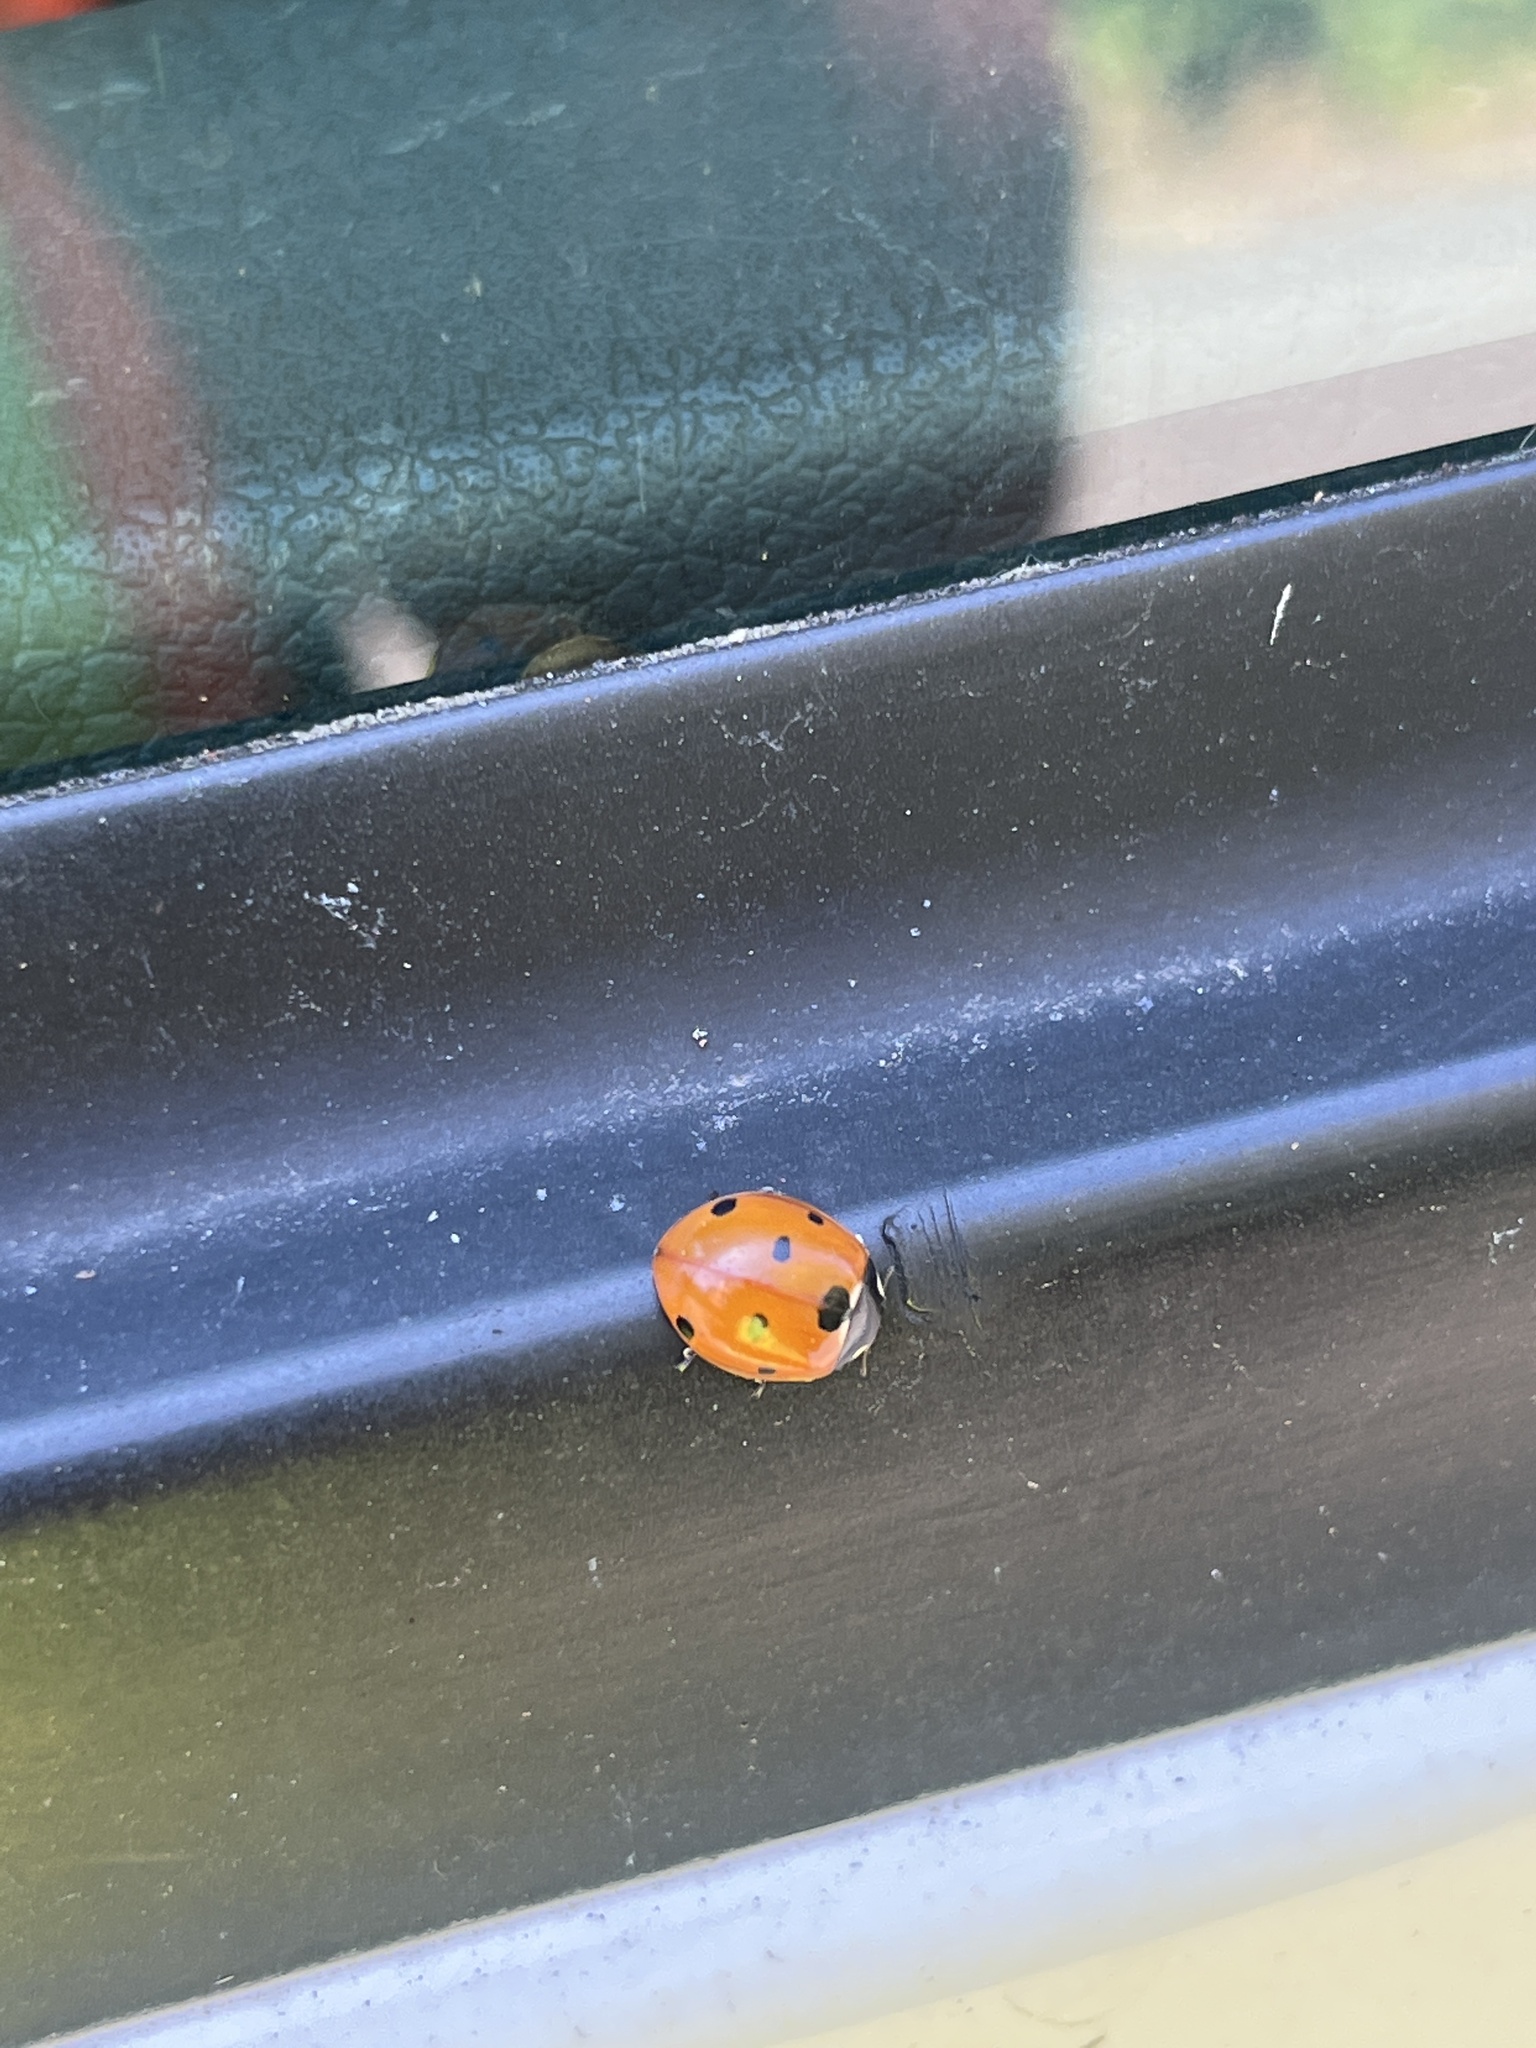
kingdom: Animalia
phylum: Arthropoda
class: Insecta
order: Coleoptera
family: Coccinellidae
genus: Coccinella
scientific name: Coccinella septempunctata
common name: Sevenspotted lady beetle
